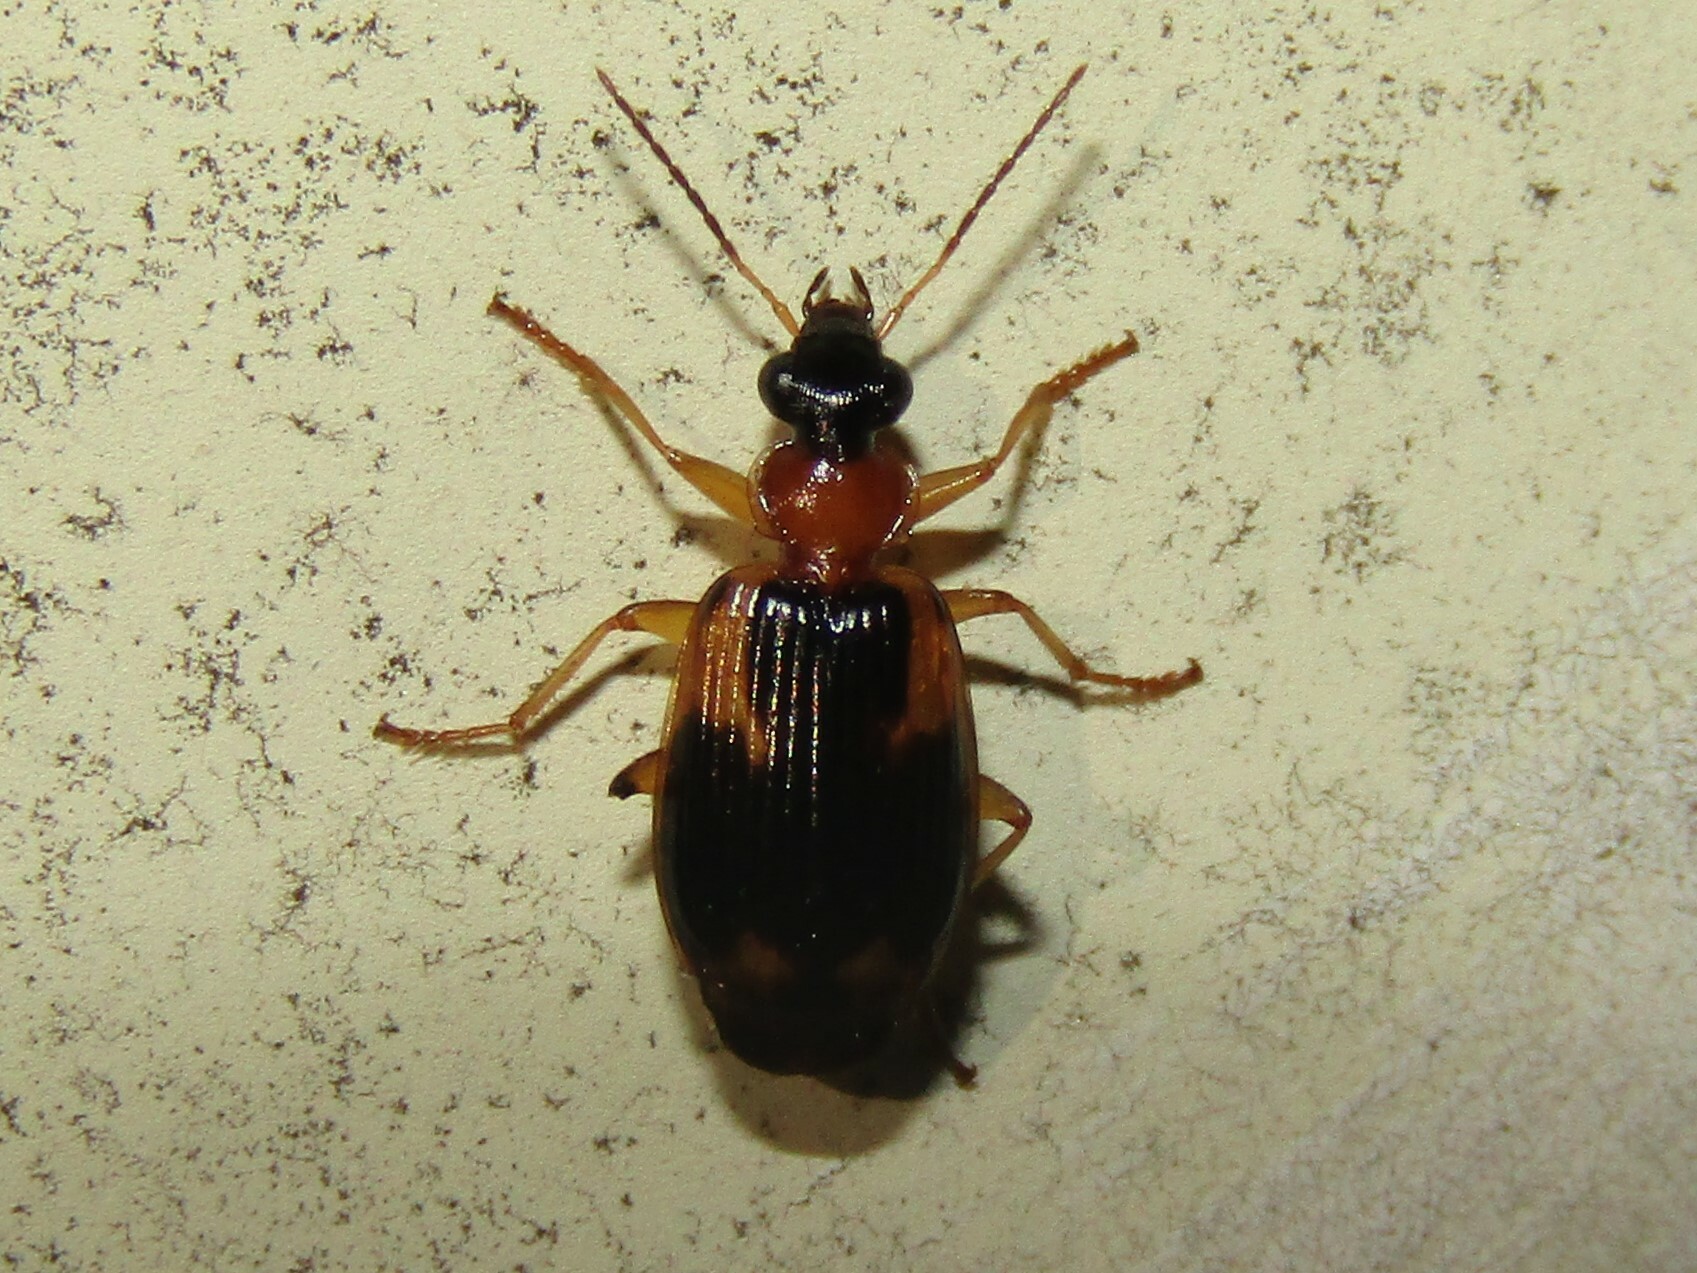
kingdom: Animalia
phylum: Arthropoda
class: Insecta
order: Coleoptera
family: Carabidae
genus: Lebia
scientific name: Lebia analis
